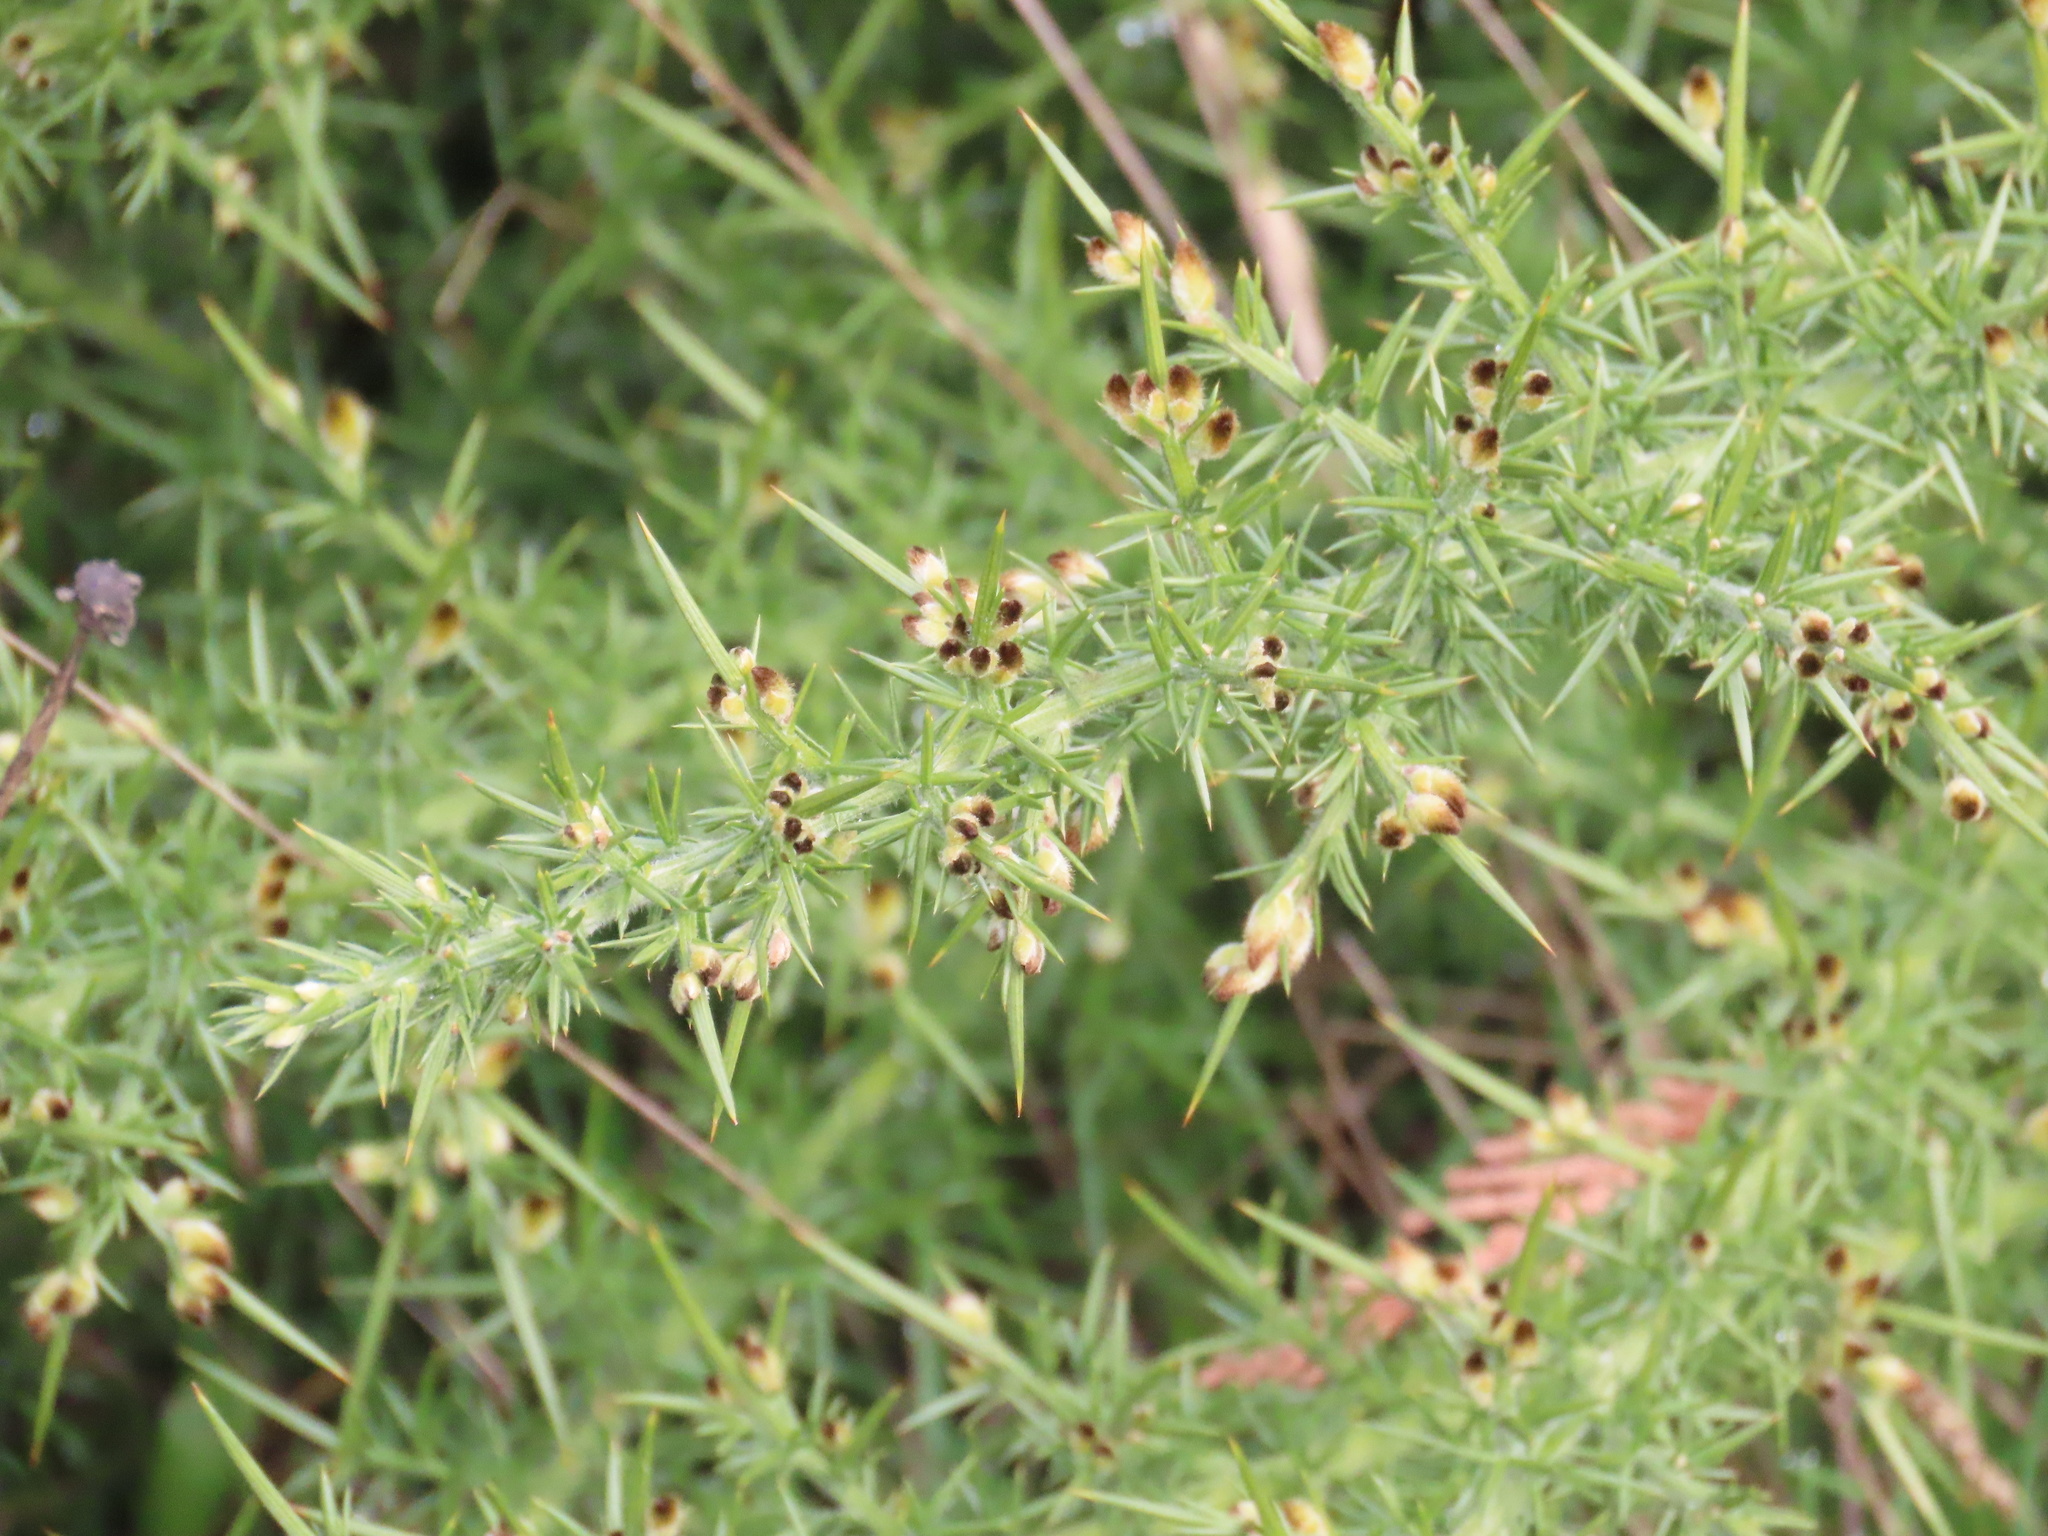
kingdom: Plantae
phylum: Tracheophyta
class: Magnoliopsida
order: Fabales
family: Fabaceae
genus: Ulex
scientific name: Ulex europaeus
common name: Common gorse
